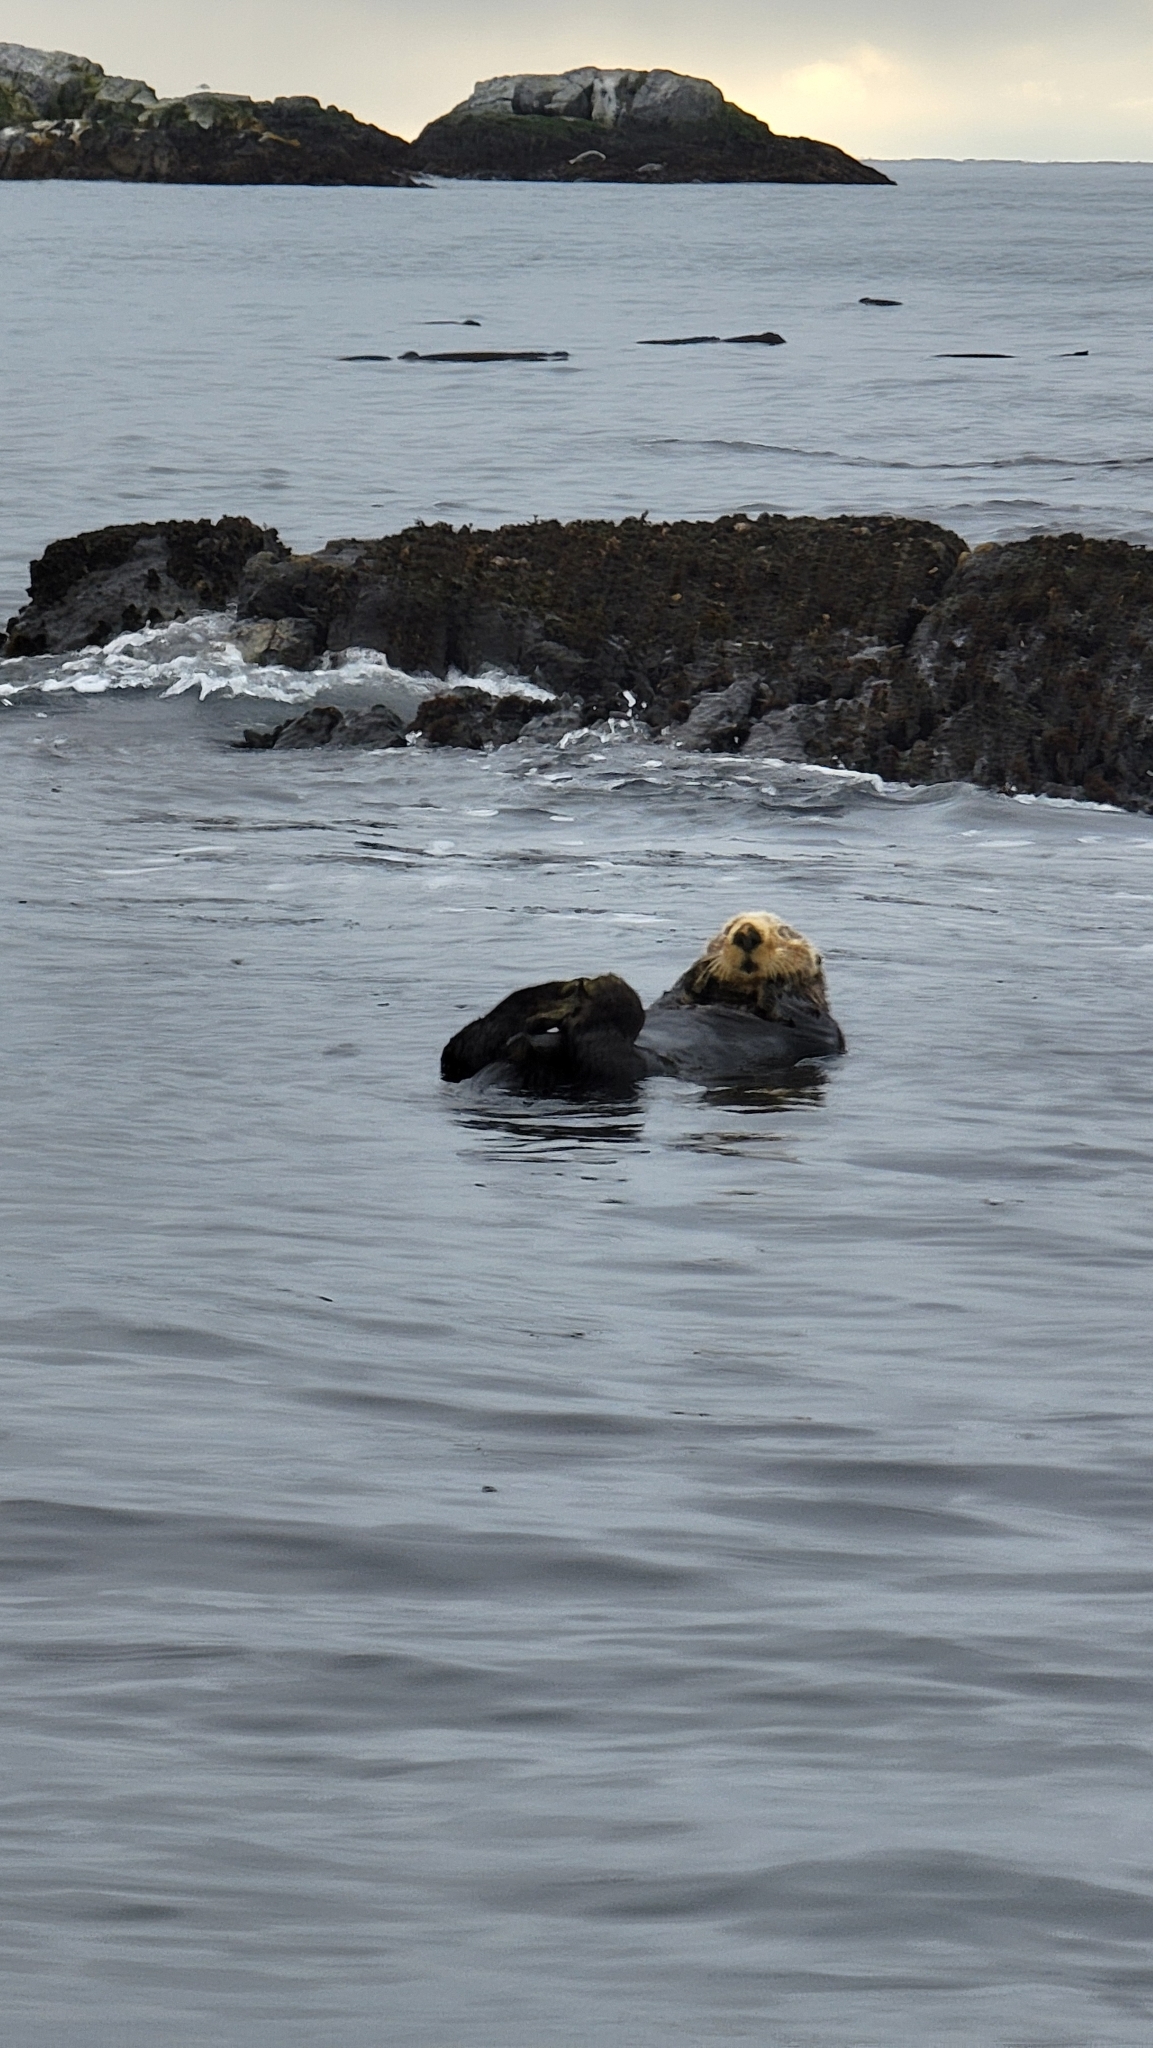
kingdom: Animalia
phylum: Chordata
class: Mammalia
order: Carnivora
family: Mustelidae
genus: Enhydra
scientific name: Enhydra lutris
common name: Sea otter
